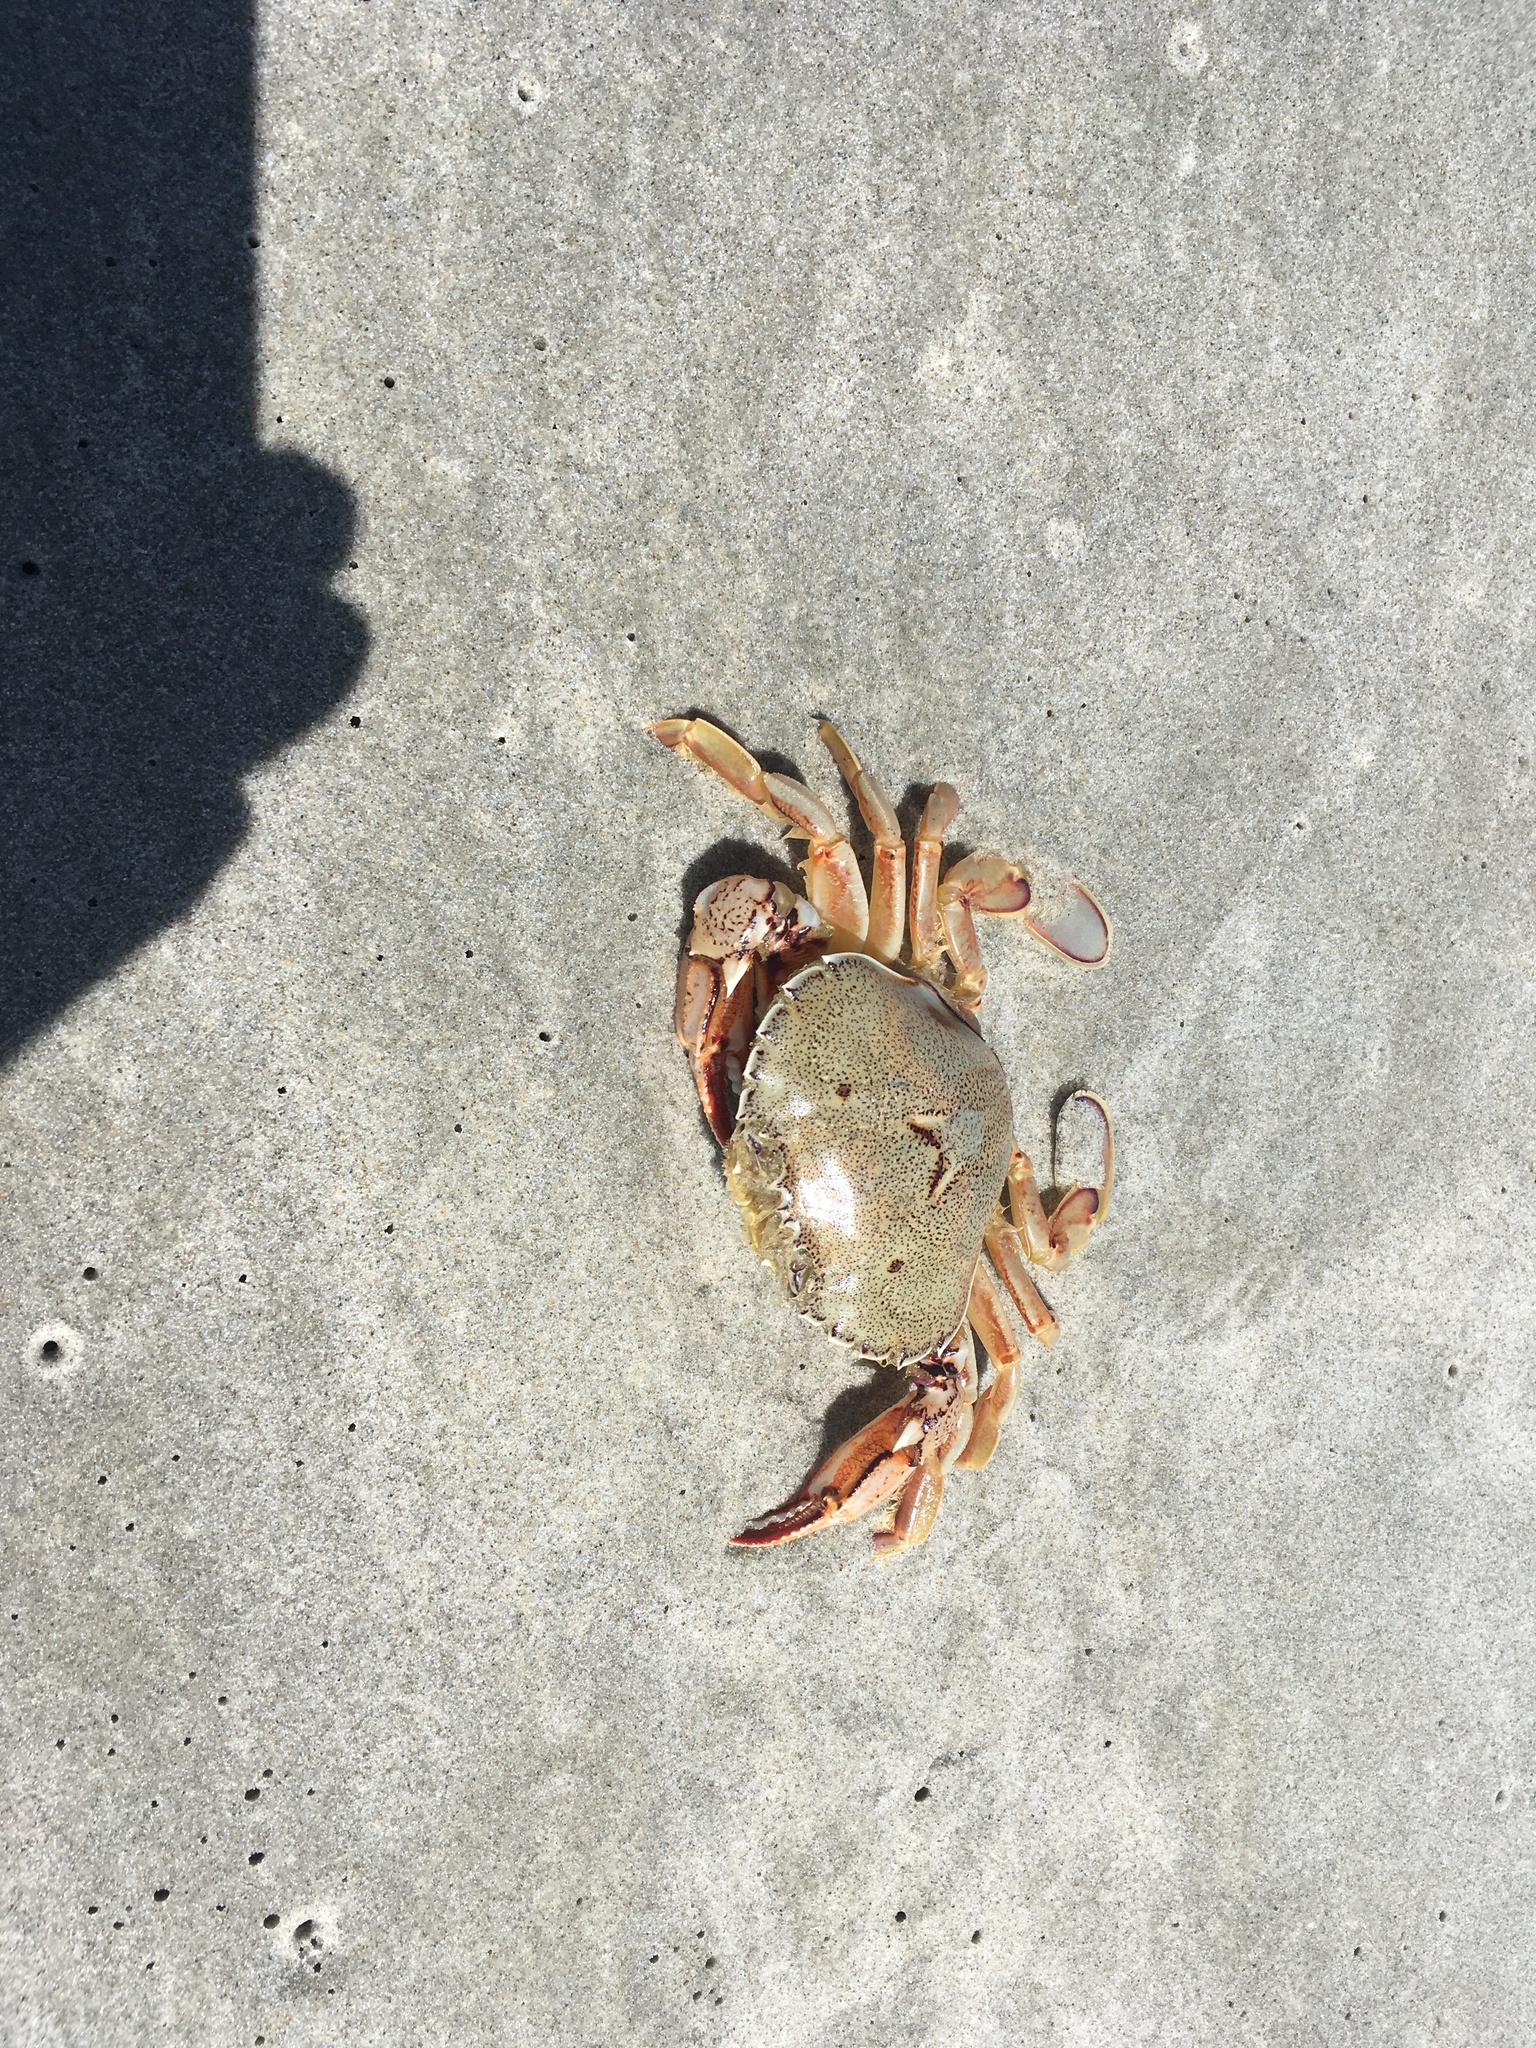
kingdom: Animalia
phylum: Arthropoda
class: Malacostraca
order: Decapoda
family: Ovalipidae
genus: Ovalipes
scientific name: Ovalipes catharus
